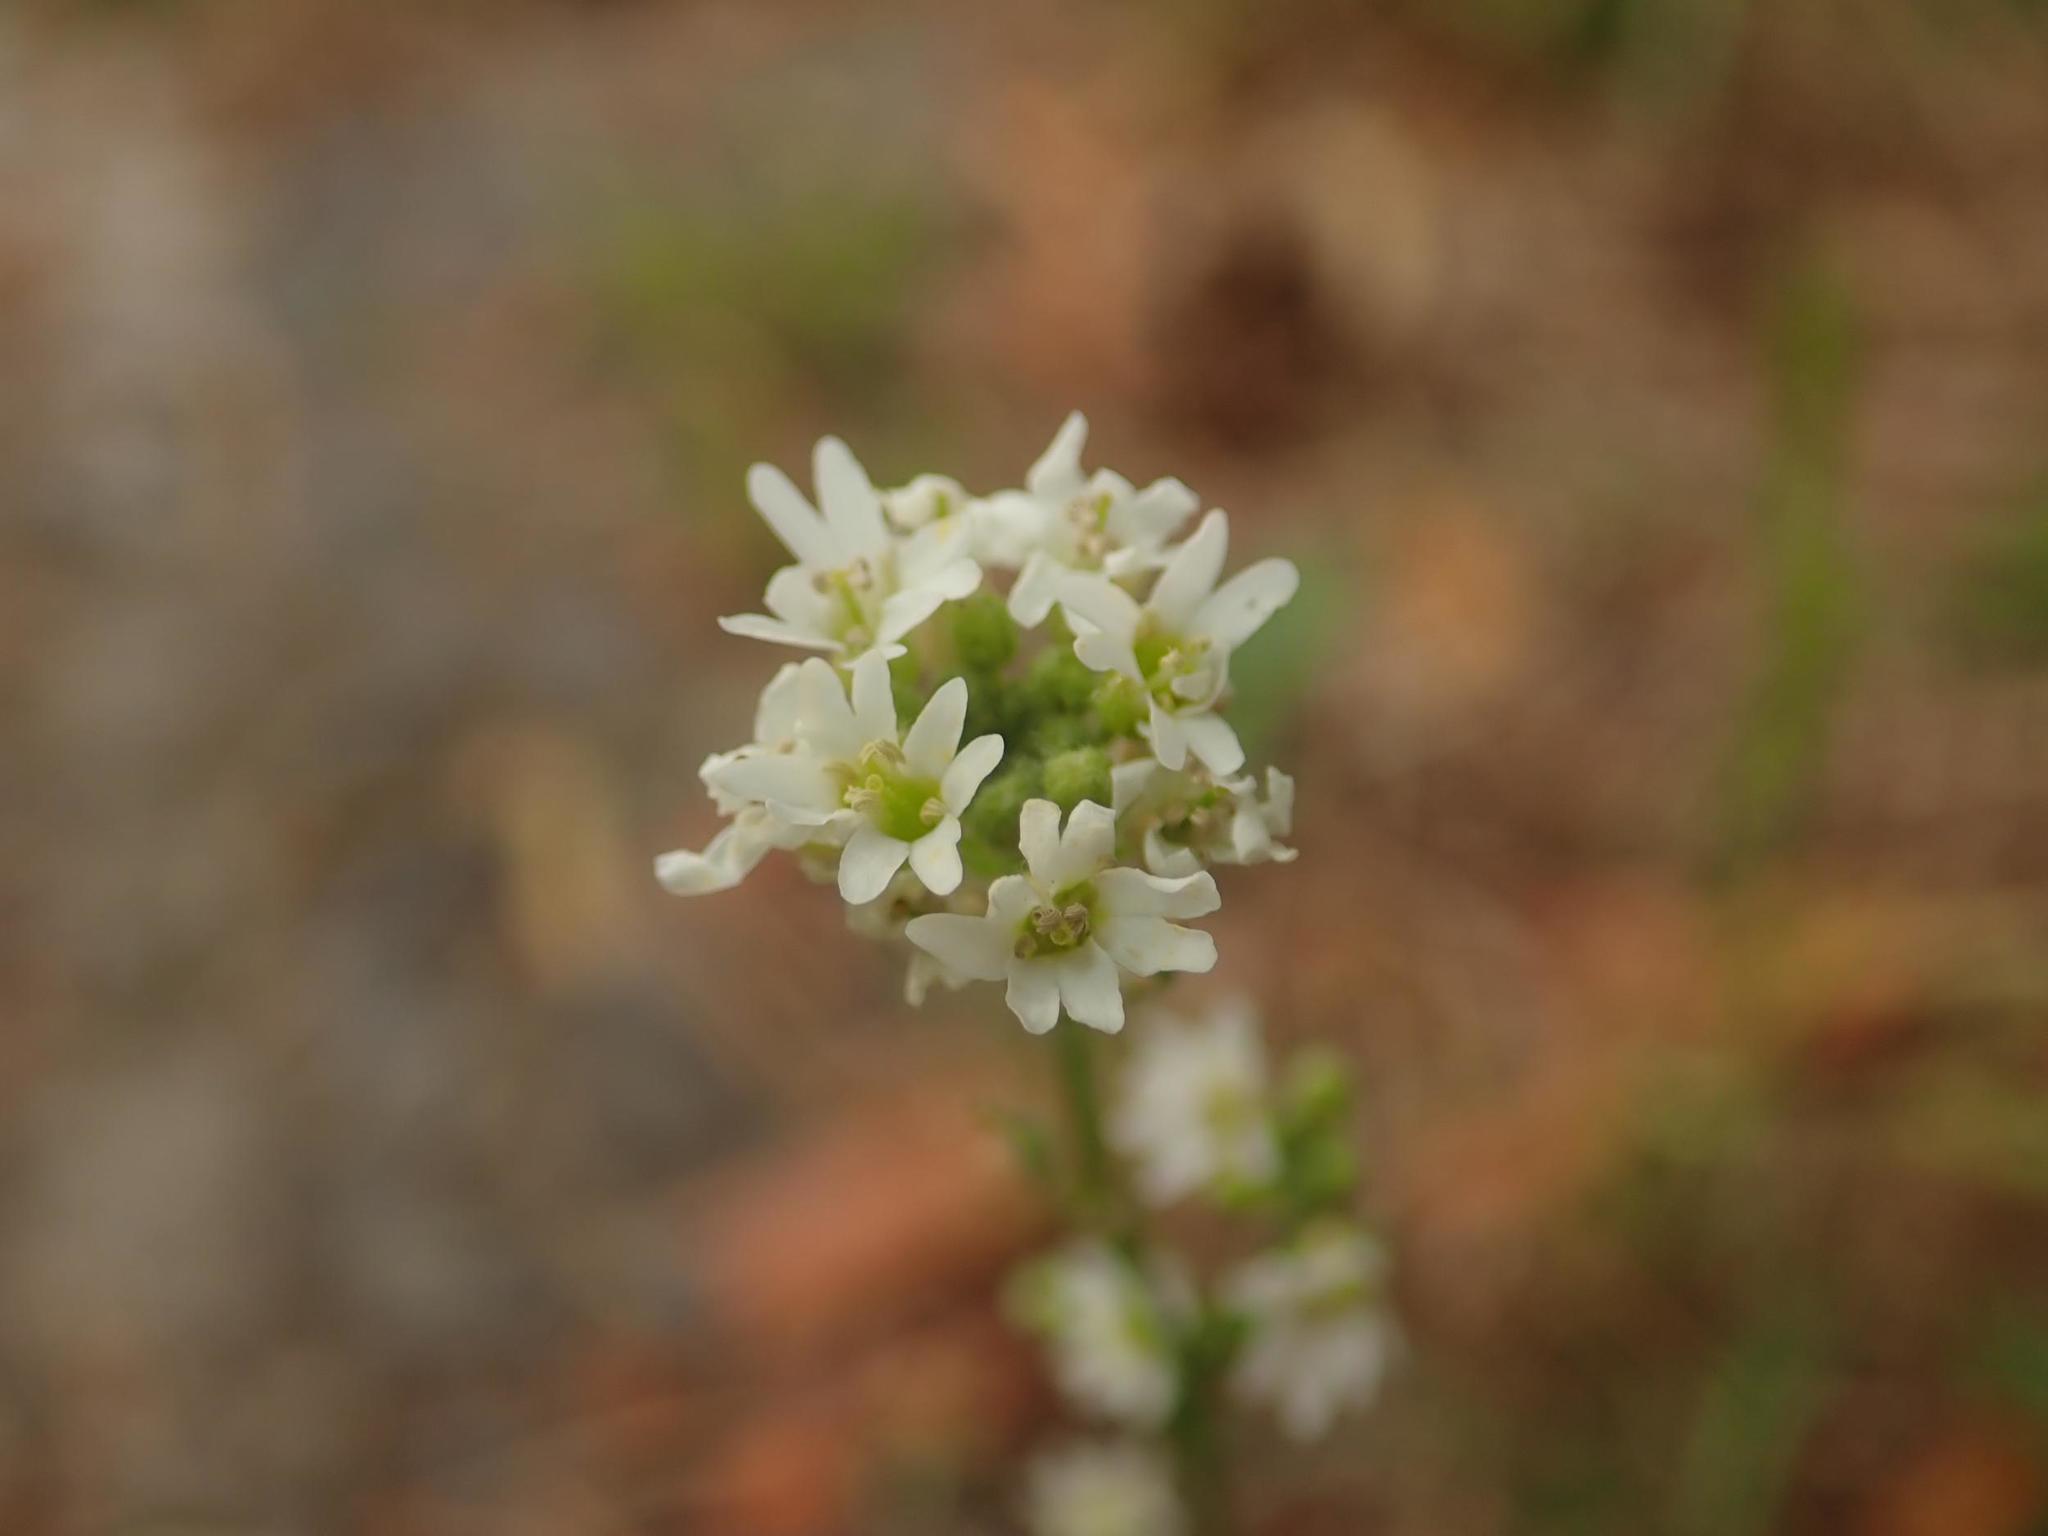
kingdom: Plantae
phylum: Tracheophyta
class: Magnoliopsida
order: Brassicales
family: Brassicaceae
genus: Berteroa
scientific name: Berteroa incana
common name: Hoary alison
